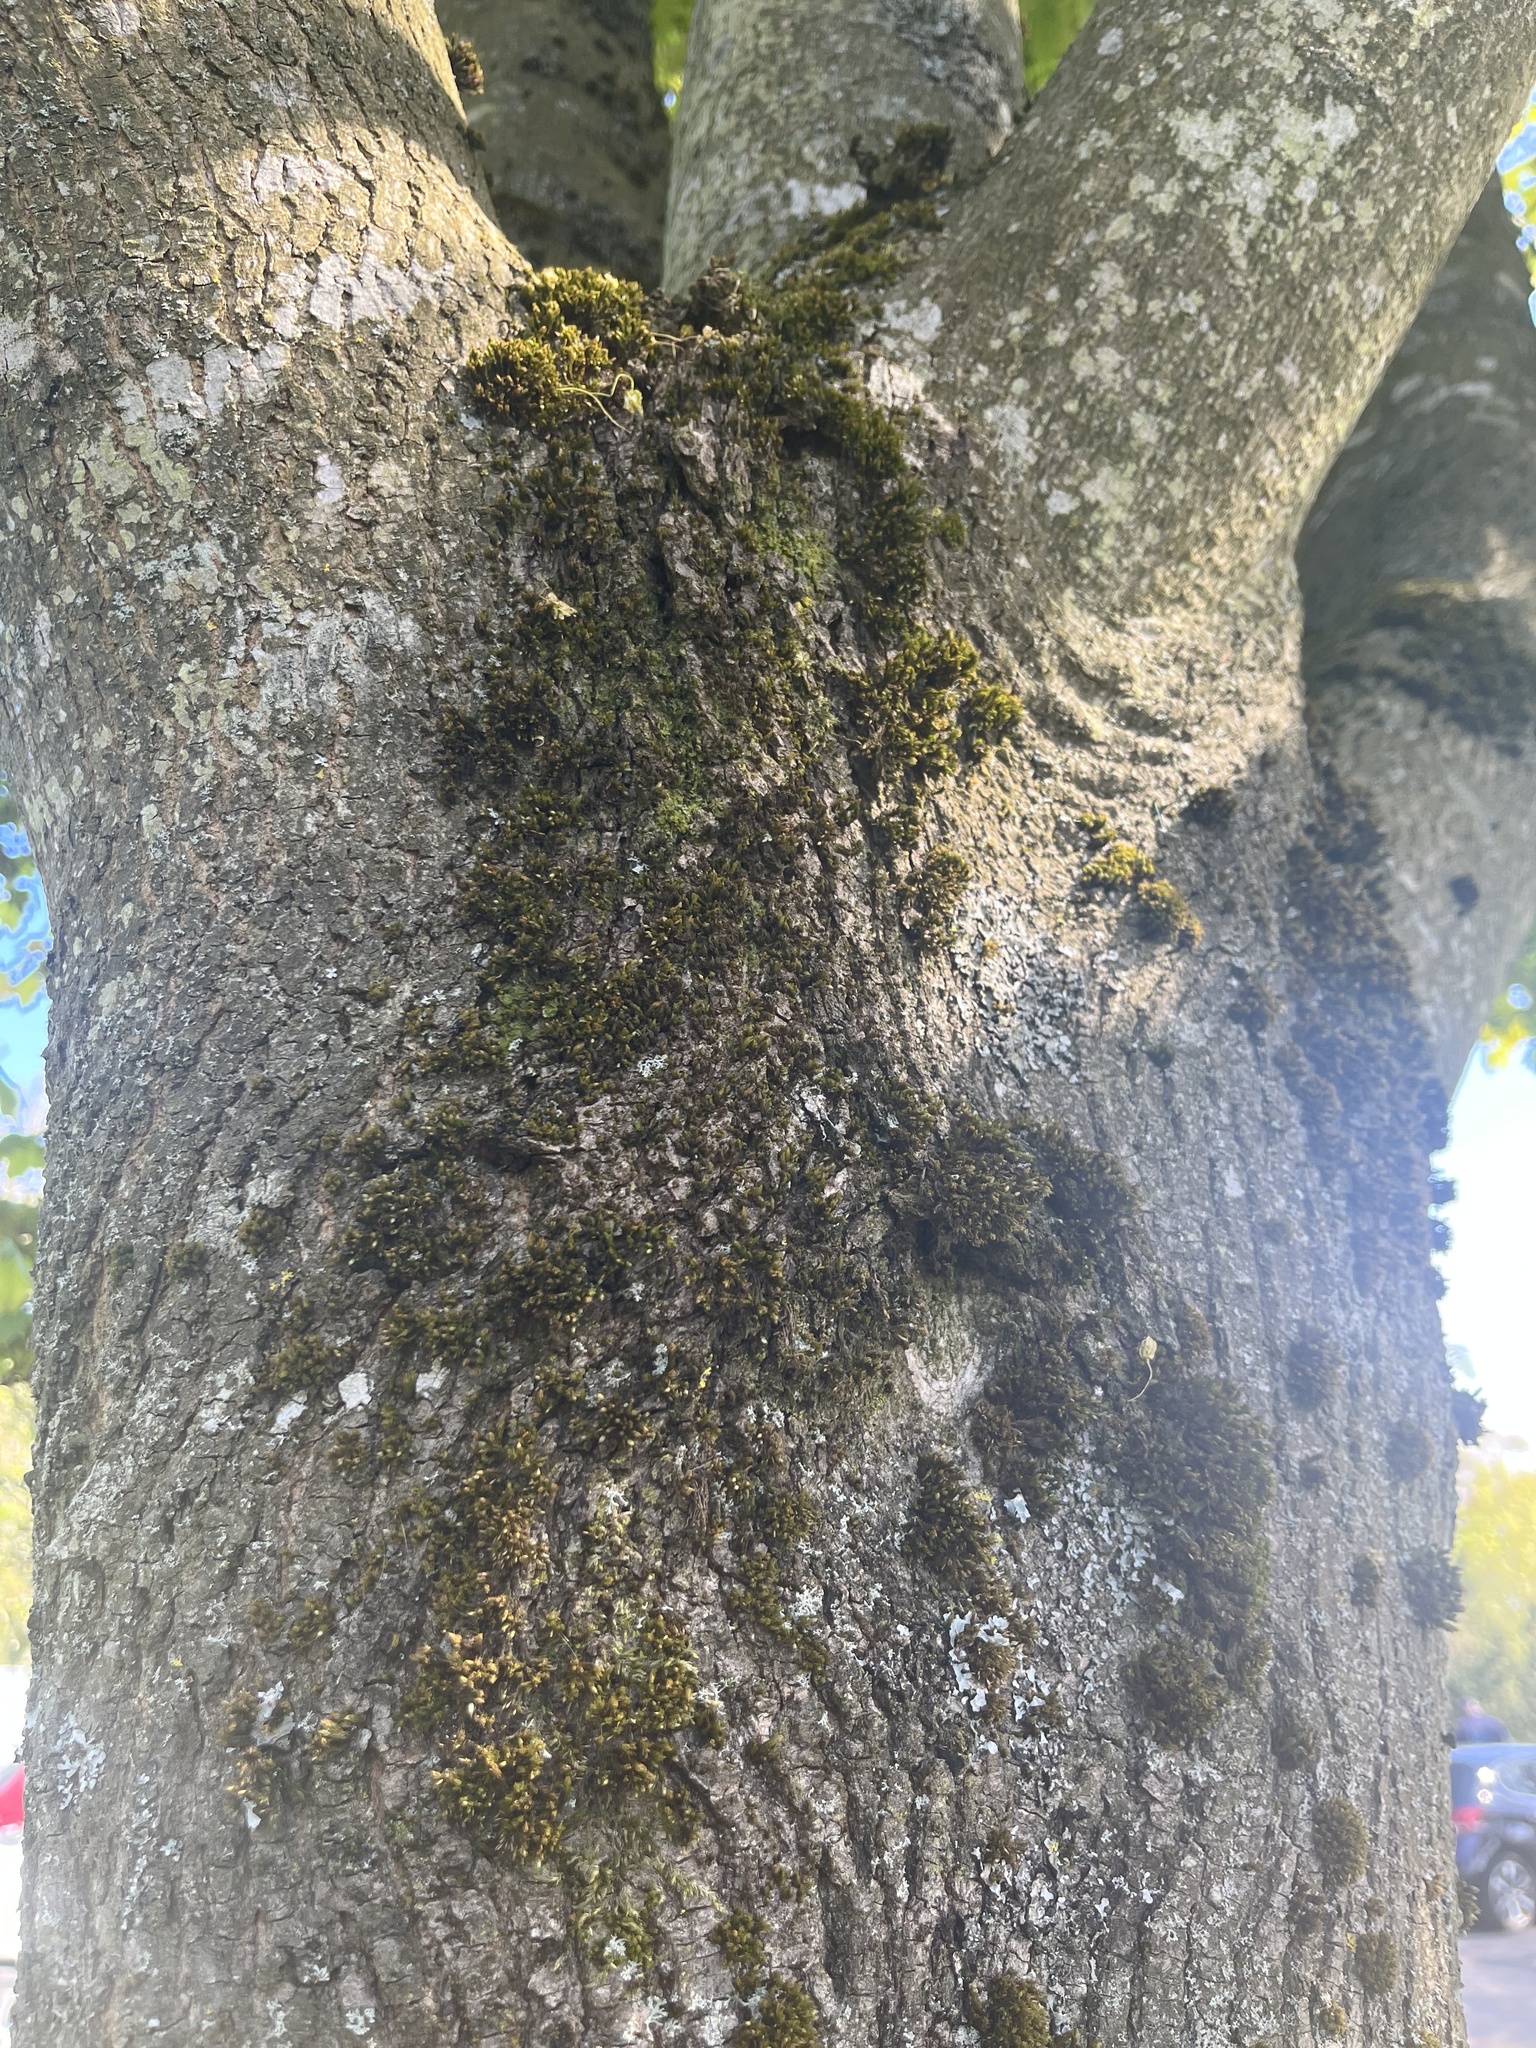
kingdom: Plantae
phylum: Marchantiophyta
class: Jungermanniopsida
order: Porellales
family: Frullaniaceae
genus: Frullania
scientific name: Frullania dilatata
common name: Dilated scalewort
